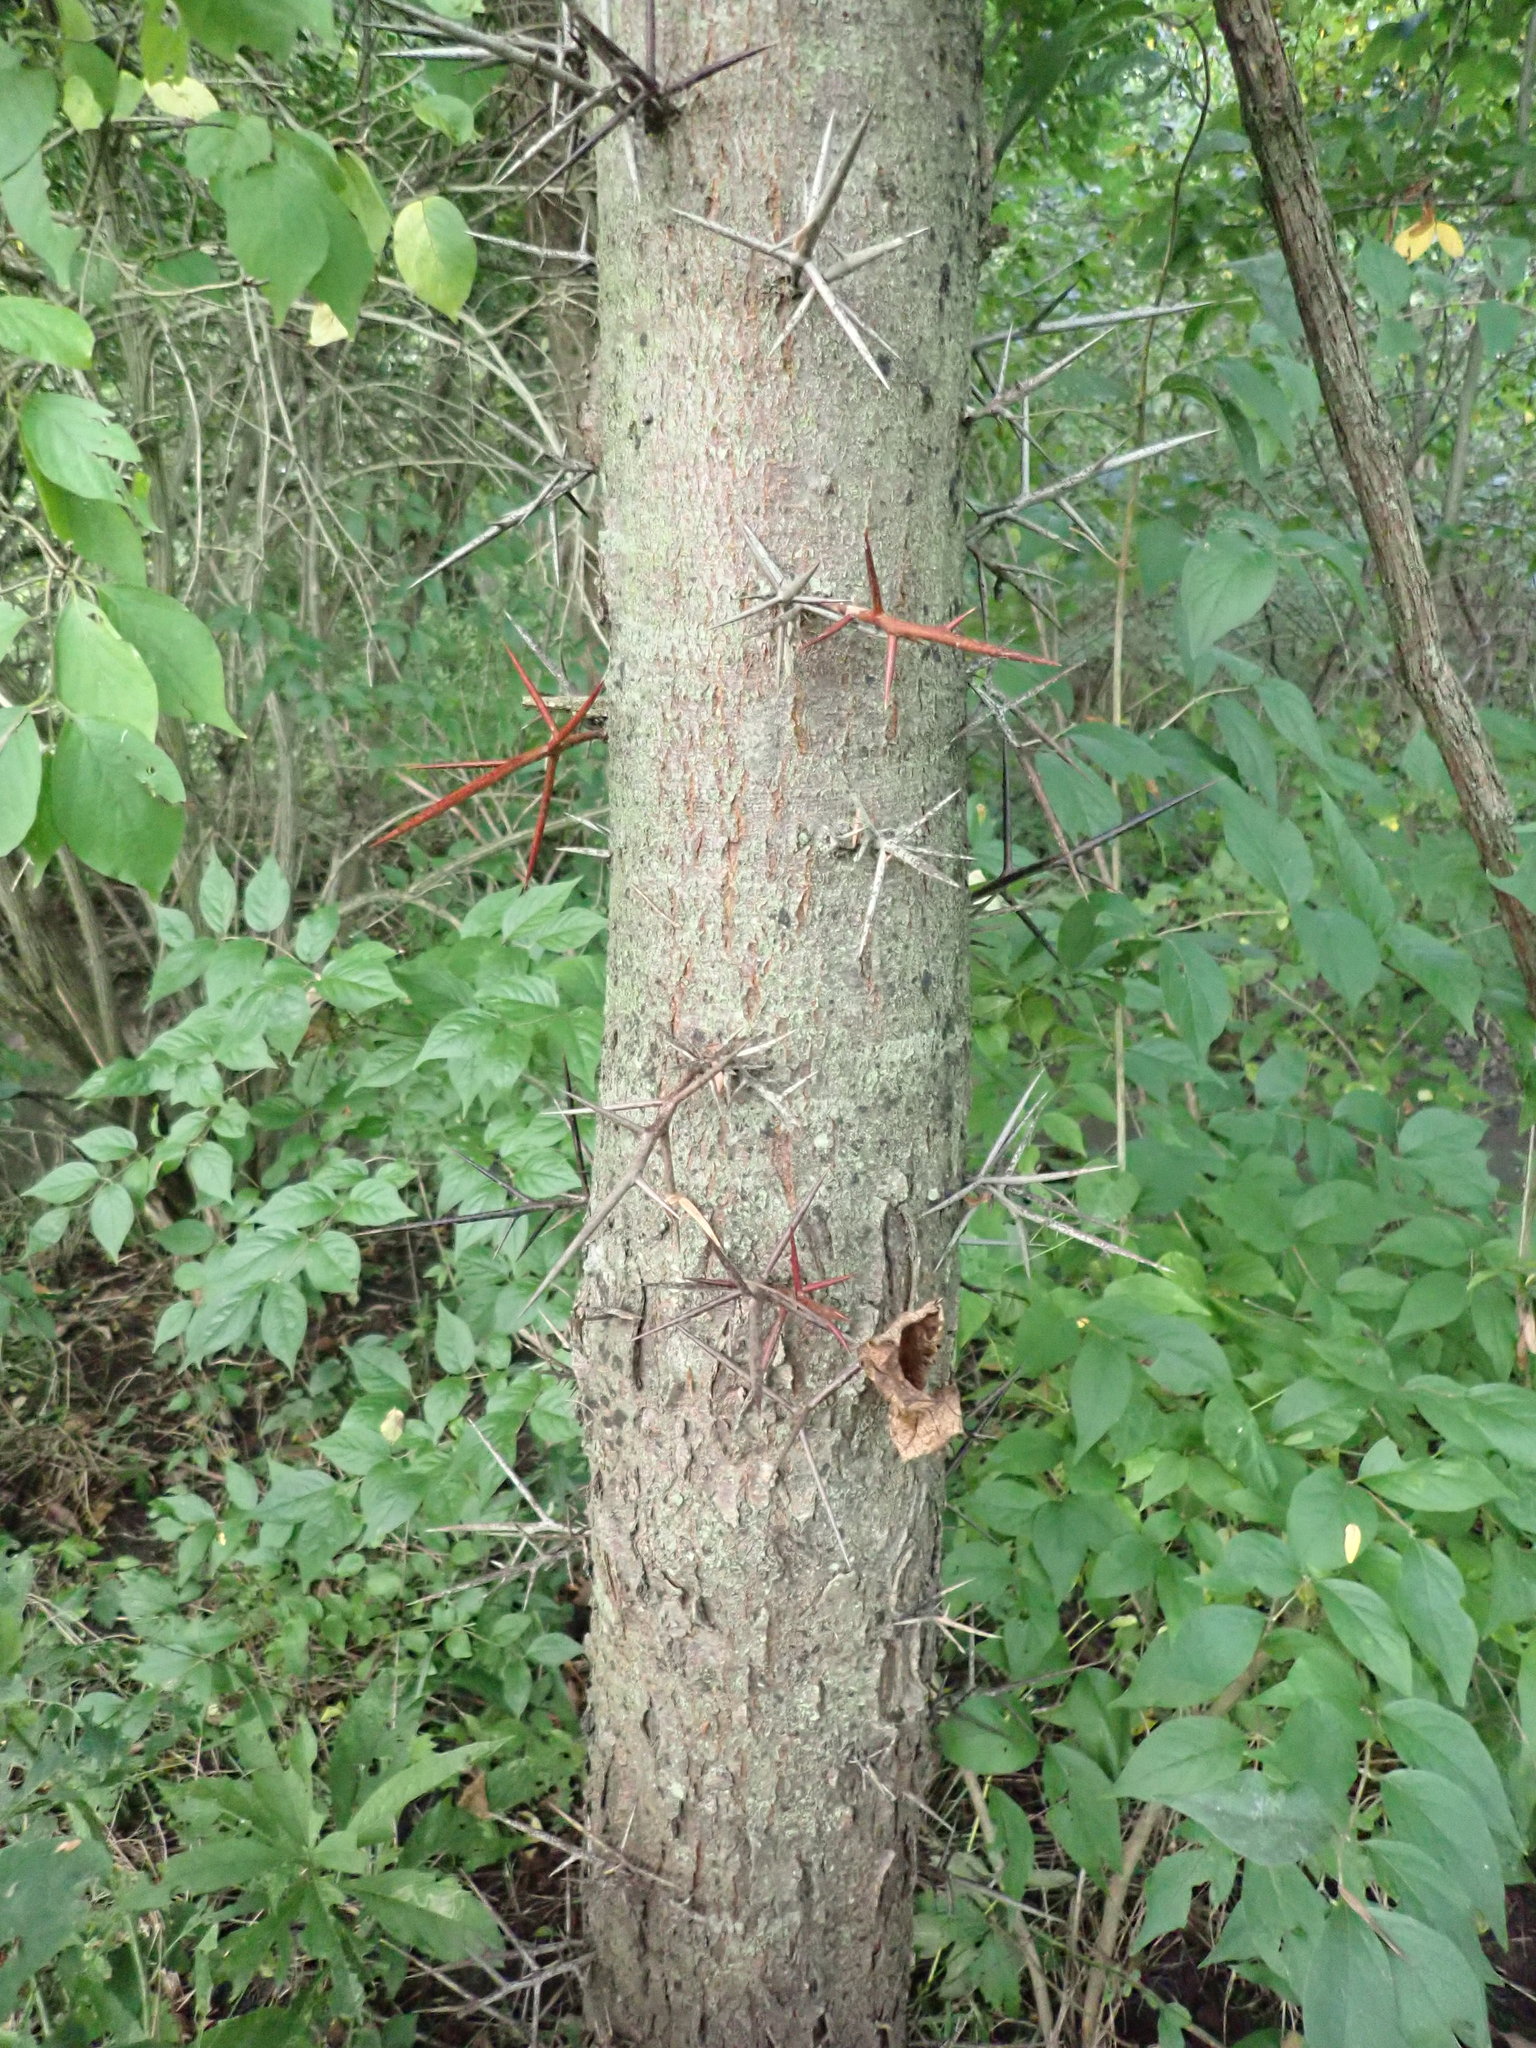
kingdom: Plantae
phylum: Tracheophyta
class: Magnoliopsida
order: Fabales
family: Fabaceae
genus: Gleditsia
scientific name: Gleditsia triacanthos
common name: Common honeylocust
